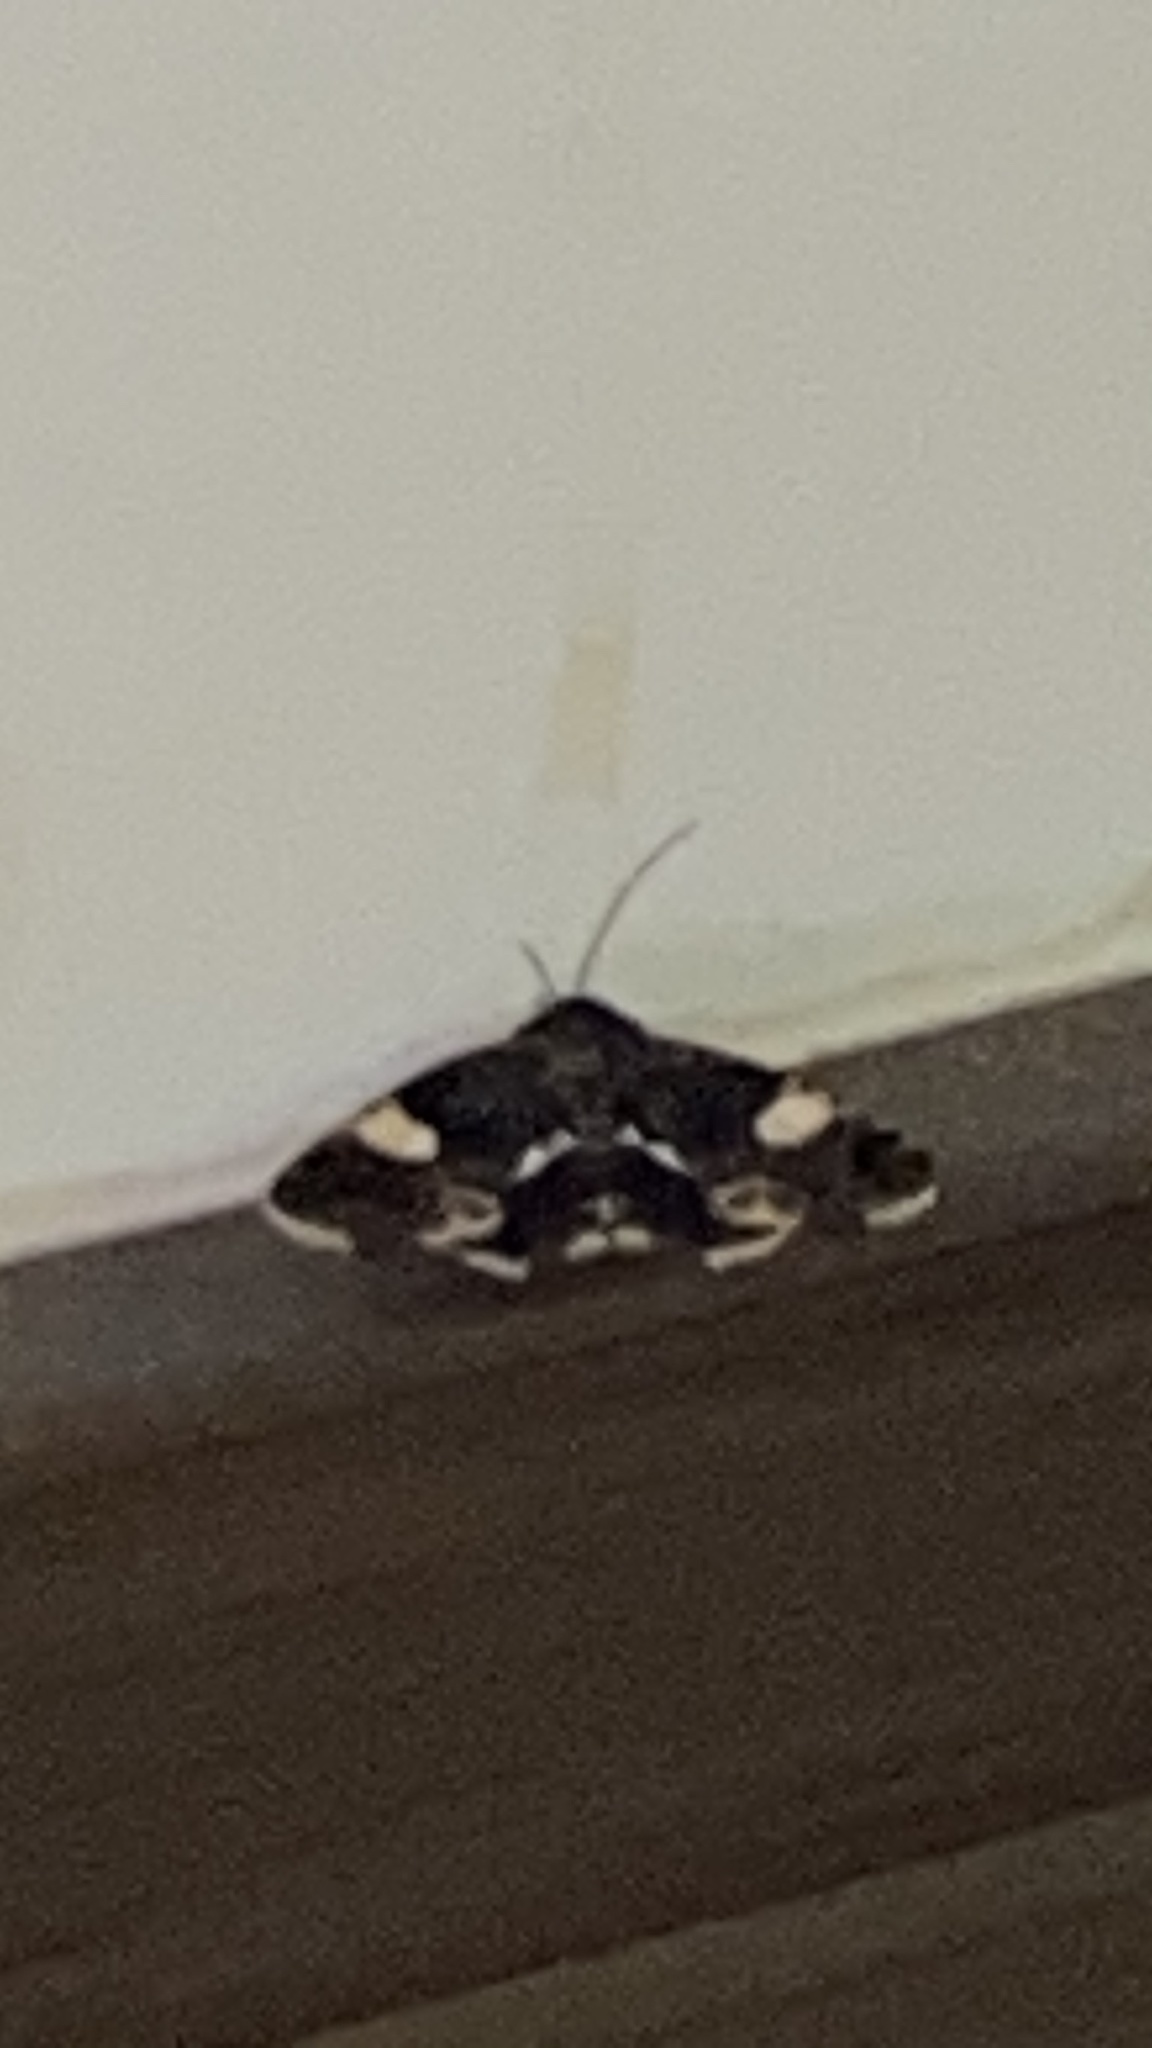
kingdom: Animalia
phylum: Arthropoda
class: Insecta
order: Lepidoptera
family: Erebidae
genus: Tyta
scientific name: Tyta luctuosa
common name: Four-spotted
